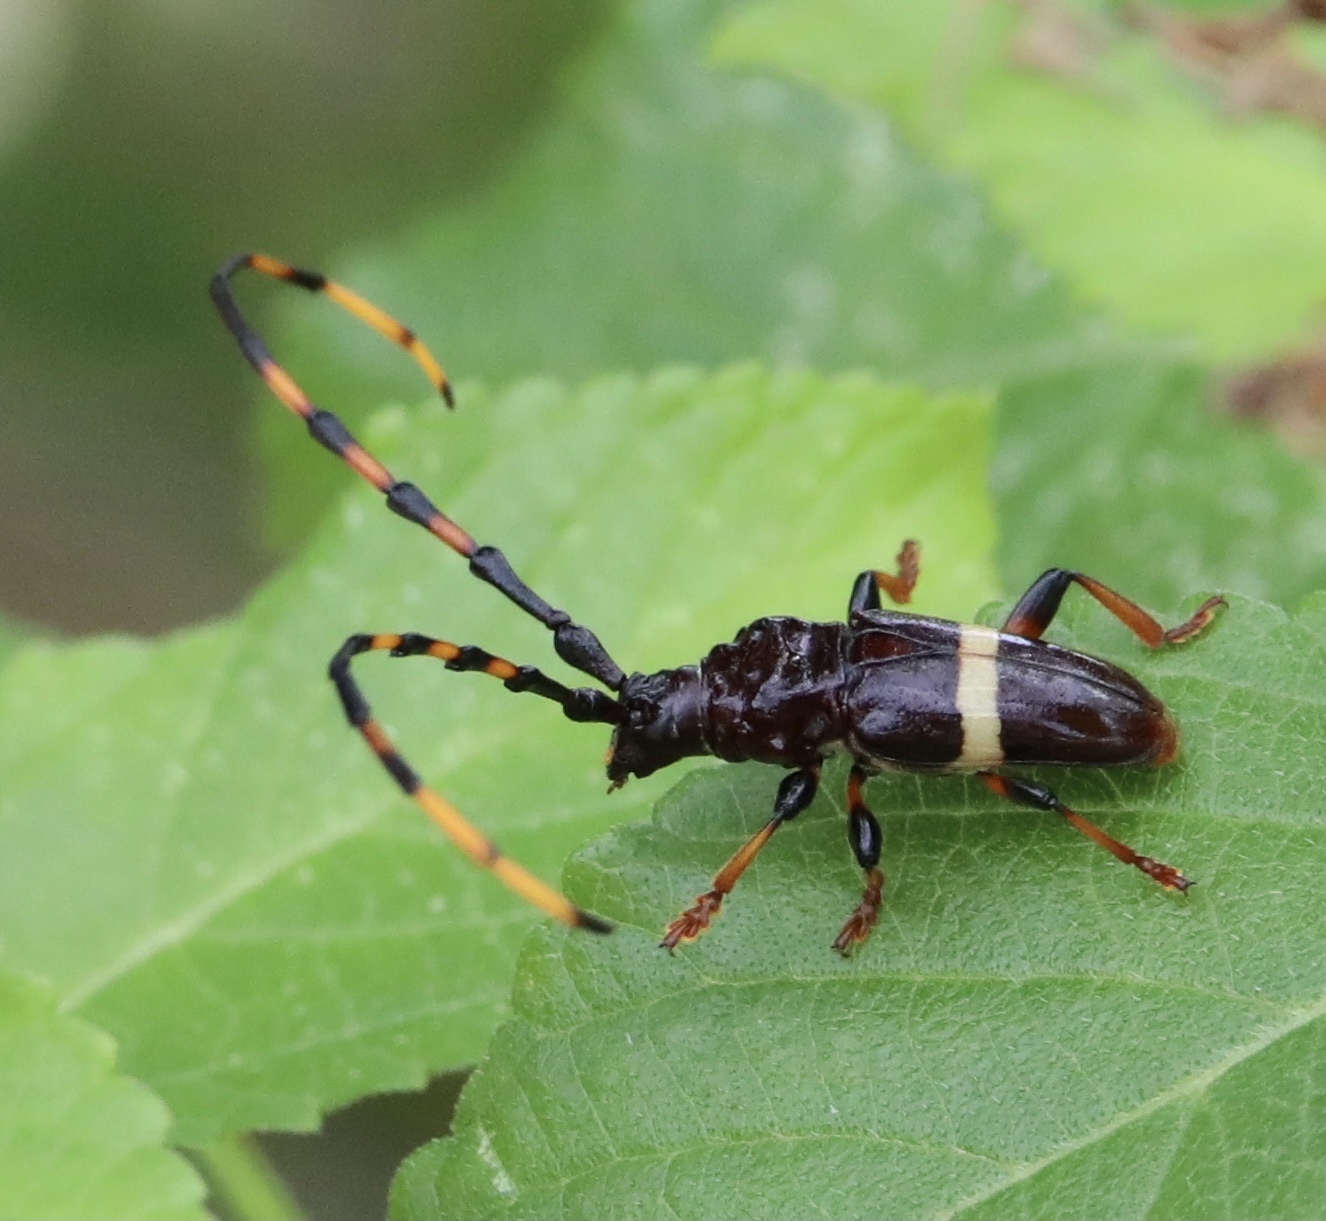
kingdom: Animalia
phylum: Arthropoda
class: Insecta
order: Coleoptera
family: Cerambycidae
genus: Trachyderes
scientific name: Trachyderes succinctus
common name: Mango longhorn
